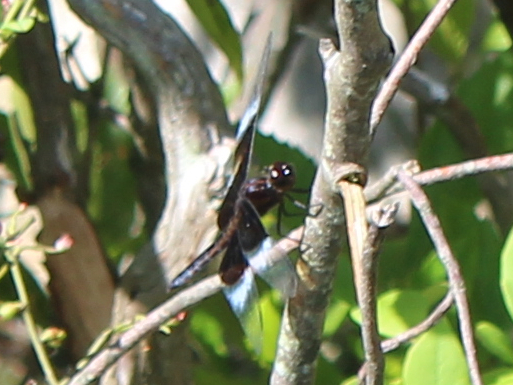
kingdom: Animalia
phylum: Arthropoda
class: Insecta
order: Odonata
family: Libellulidae
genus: Libellula
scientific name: Libellula luctuosa
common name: Widow skimmer
